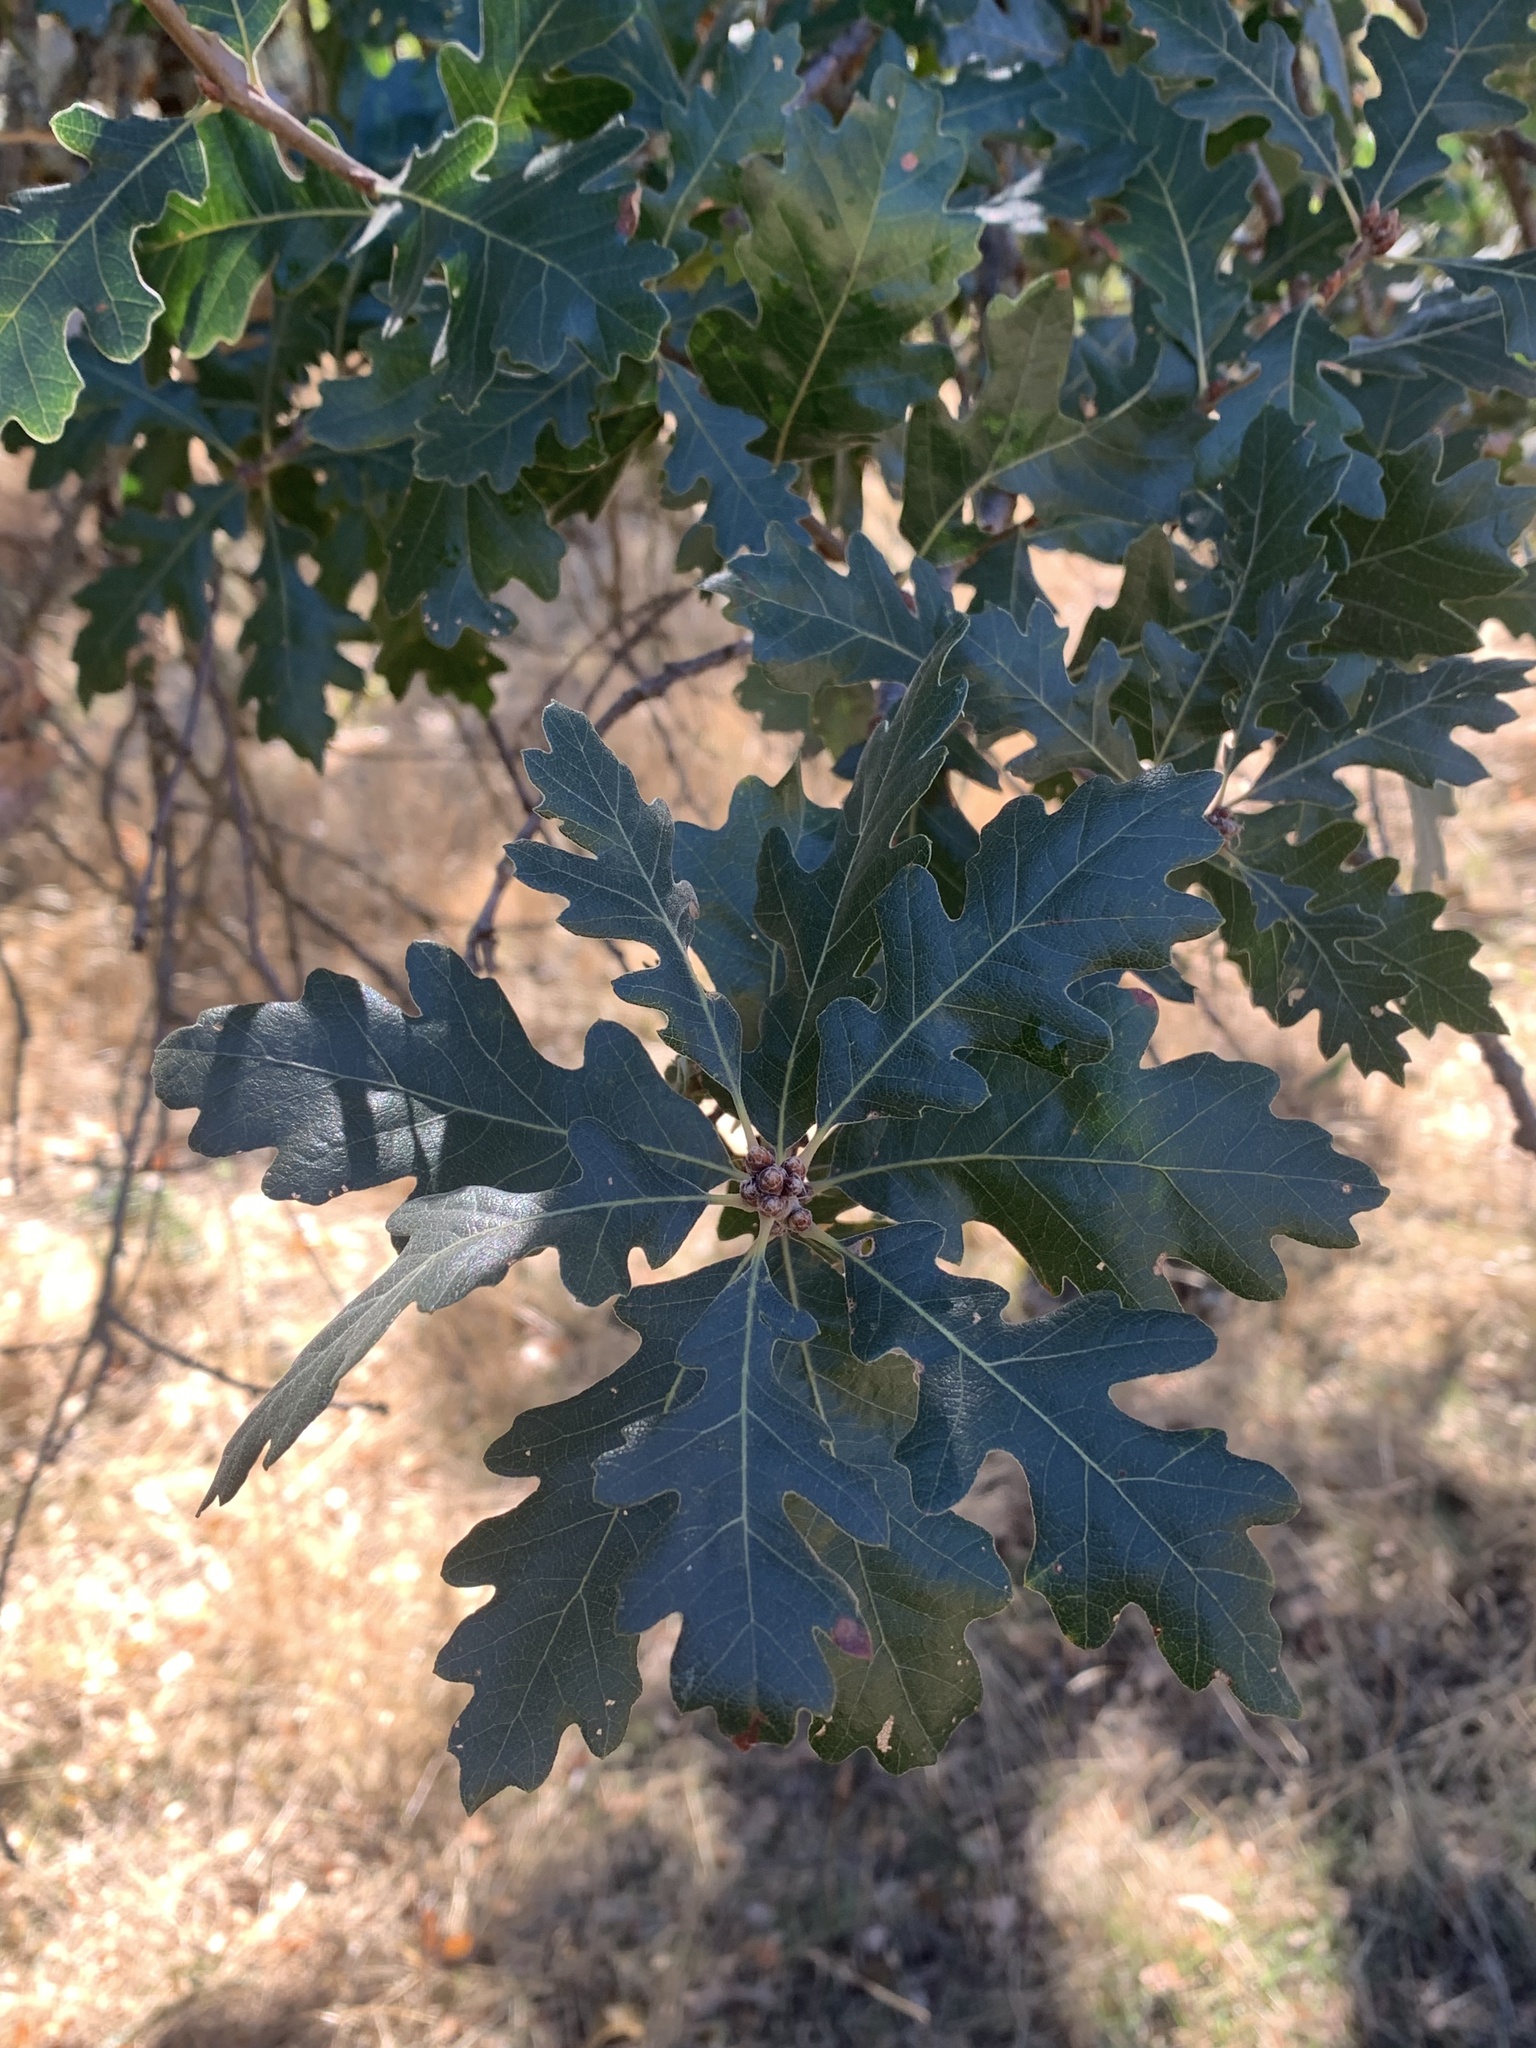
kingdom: Plantae
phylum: Tracheophyta
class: Magnoliopsida
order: Fagales
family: Fagaceae
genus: Quercus
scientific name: Quercus lobata
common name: Valley oak
